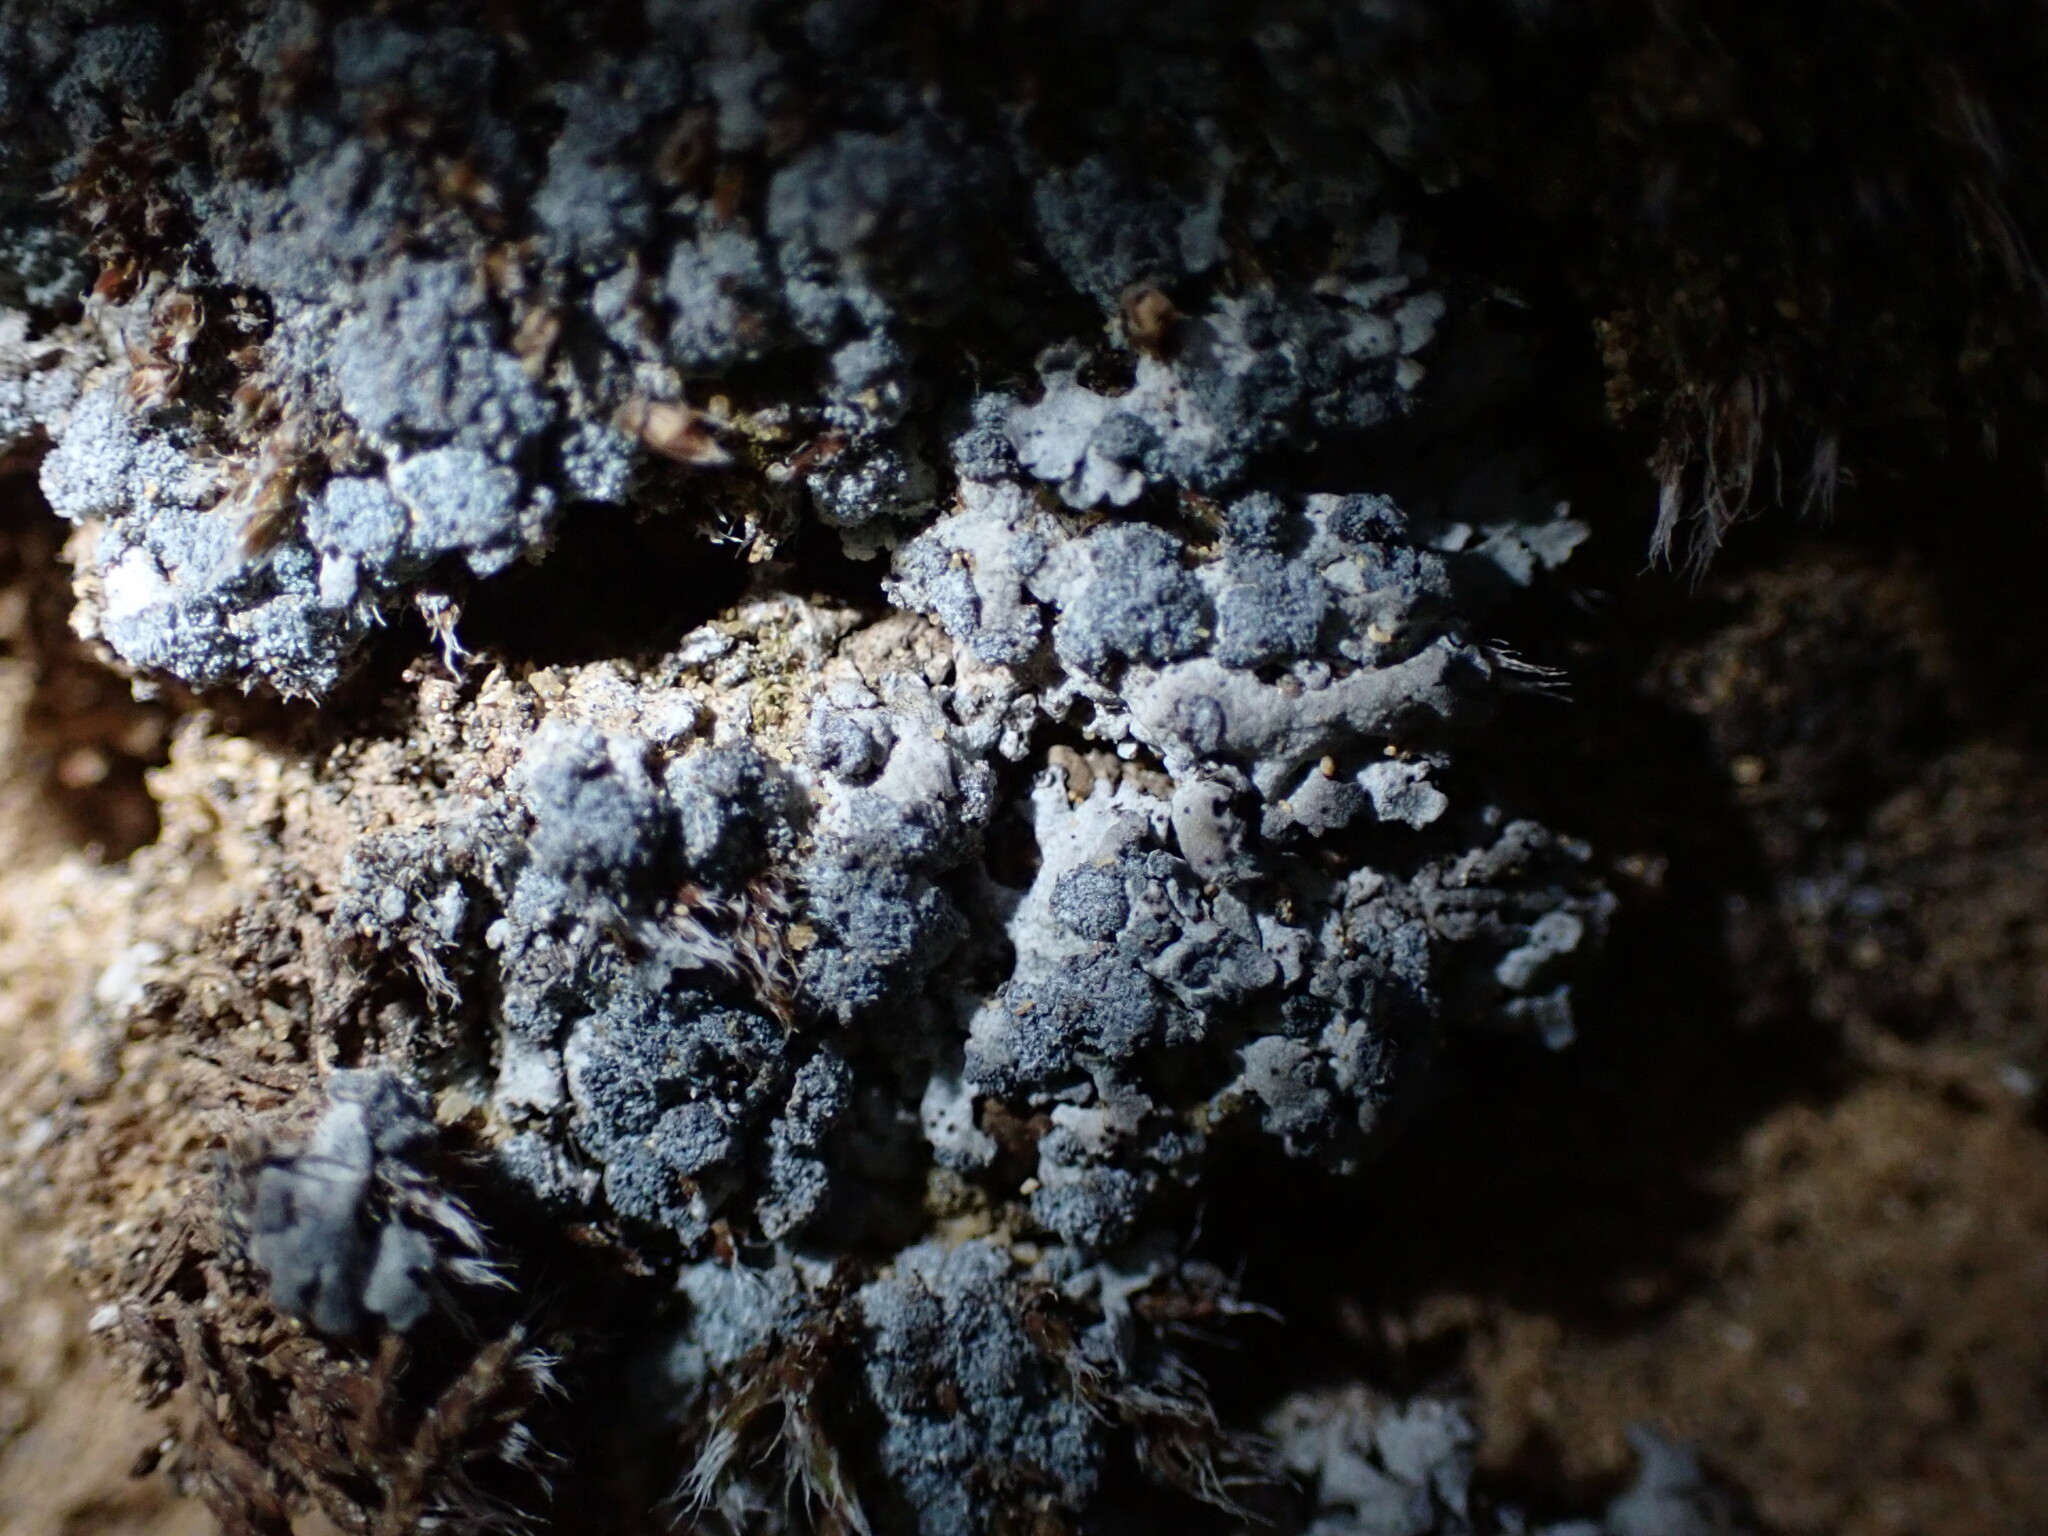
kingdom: Fungi
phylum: Ascomycota
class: Lecanoromycetes
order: Caliciales
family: Physciaceae
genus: Physcia
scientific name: Physcia caesia
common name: Blue-gray rosette lichen
